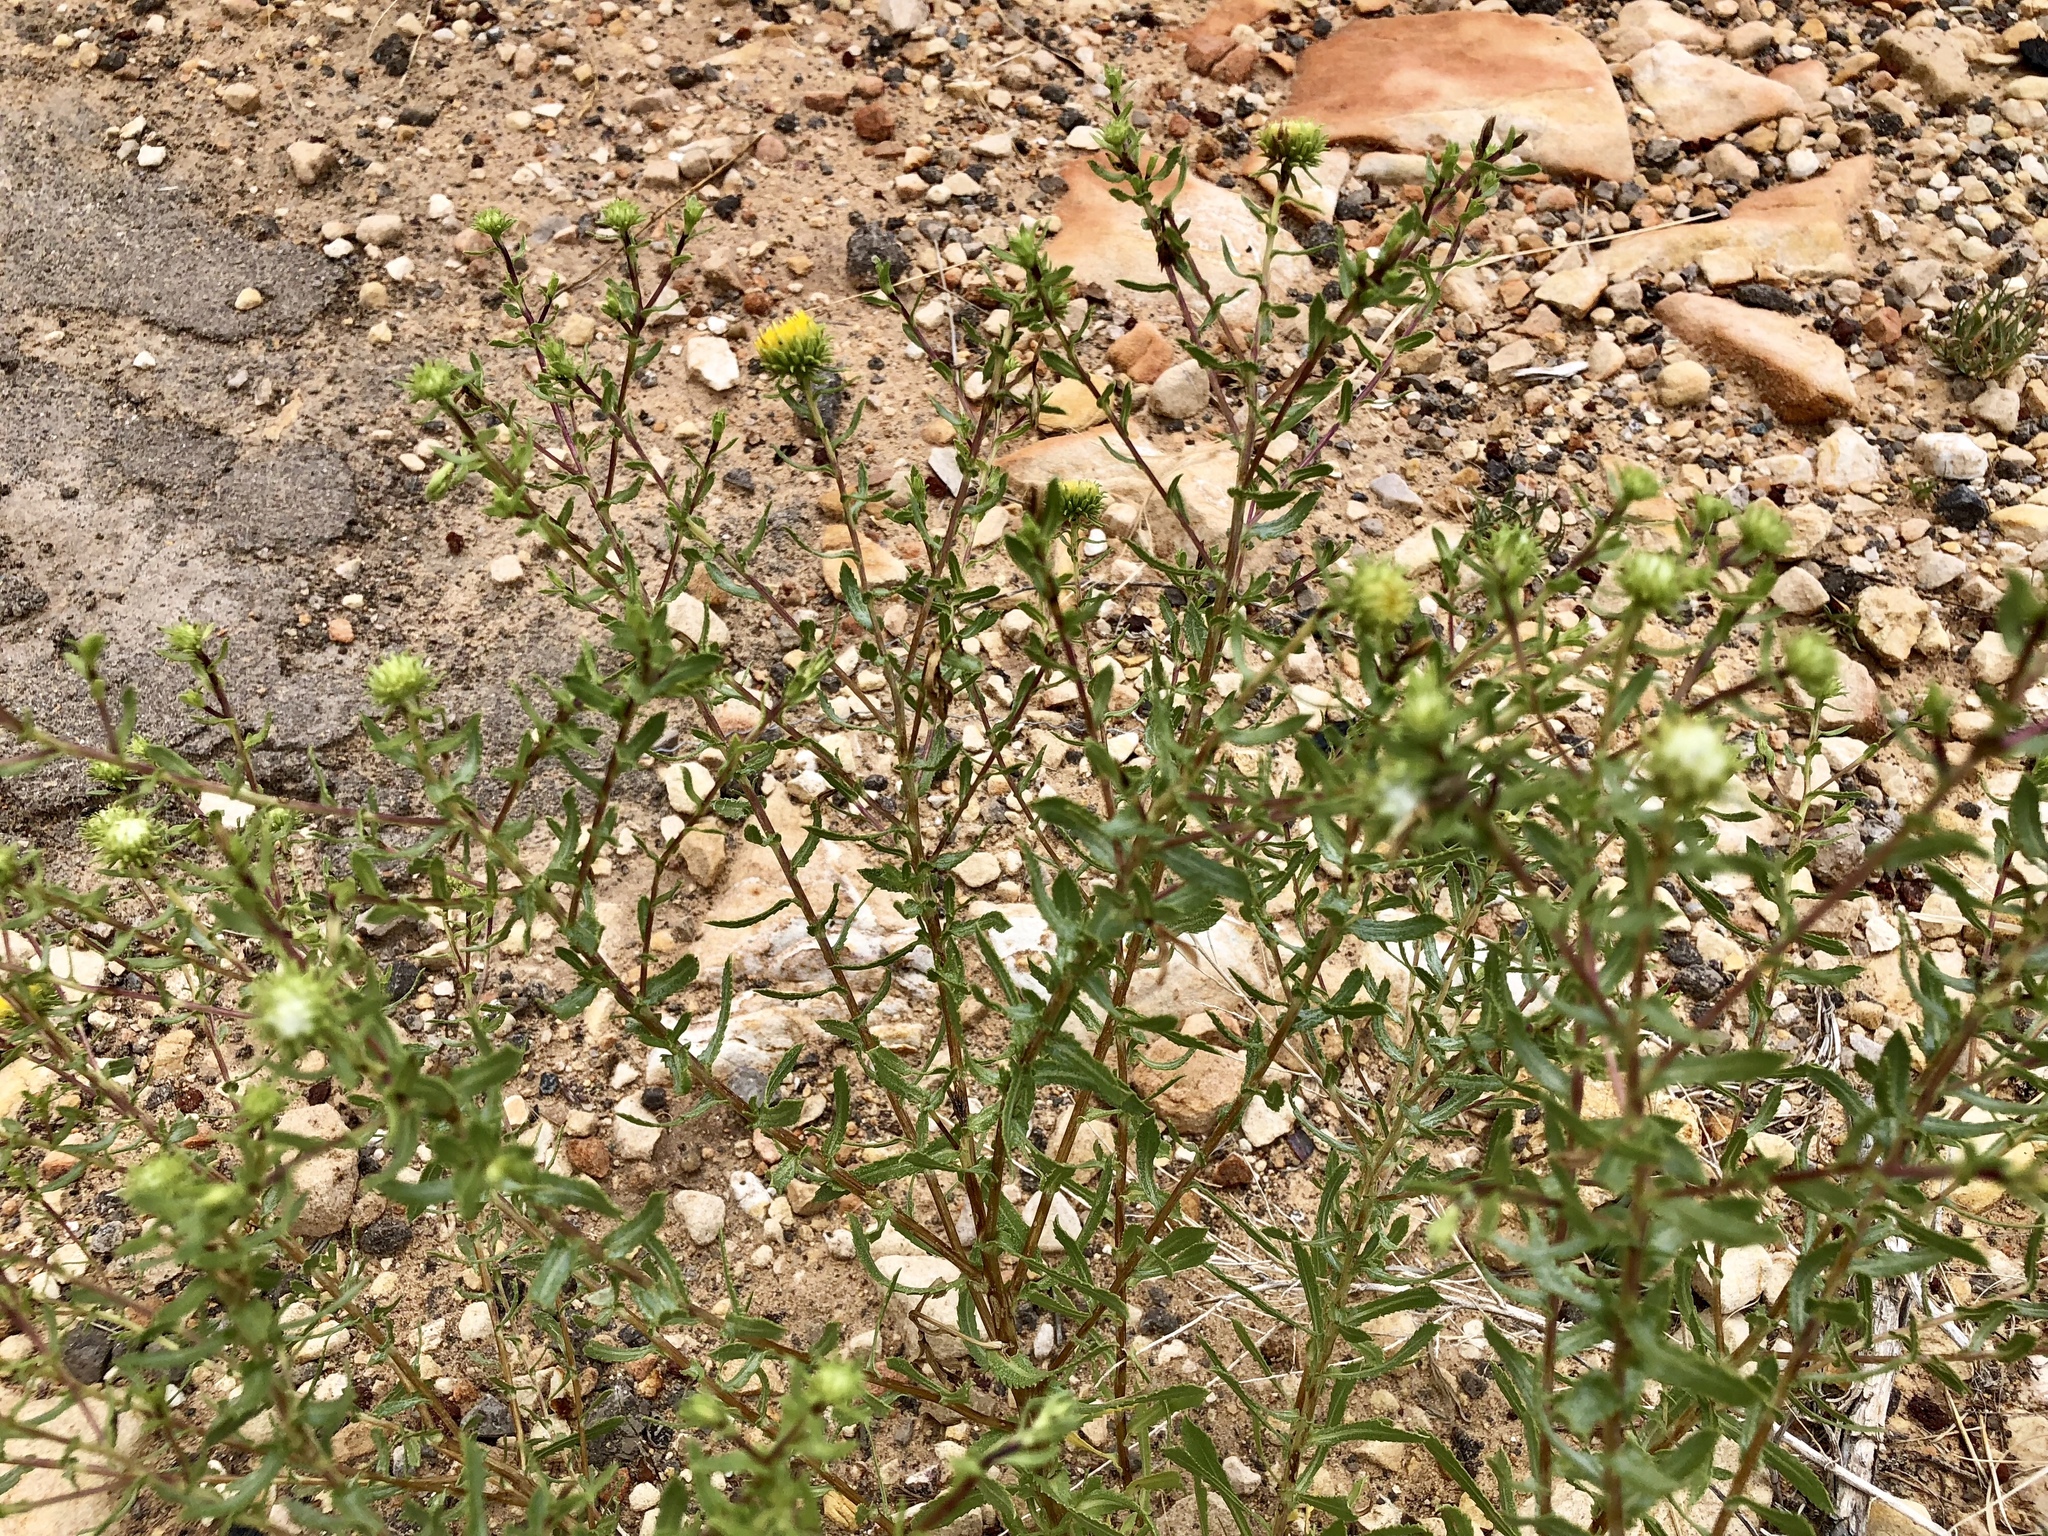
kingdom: Plantae
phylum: Tracheophyta
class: Magnoliopsida
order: Asterales
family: Asteraceae
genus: Grindelia
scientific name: Grindelia squarrosa
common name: Curly-cup gumweed
